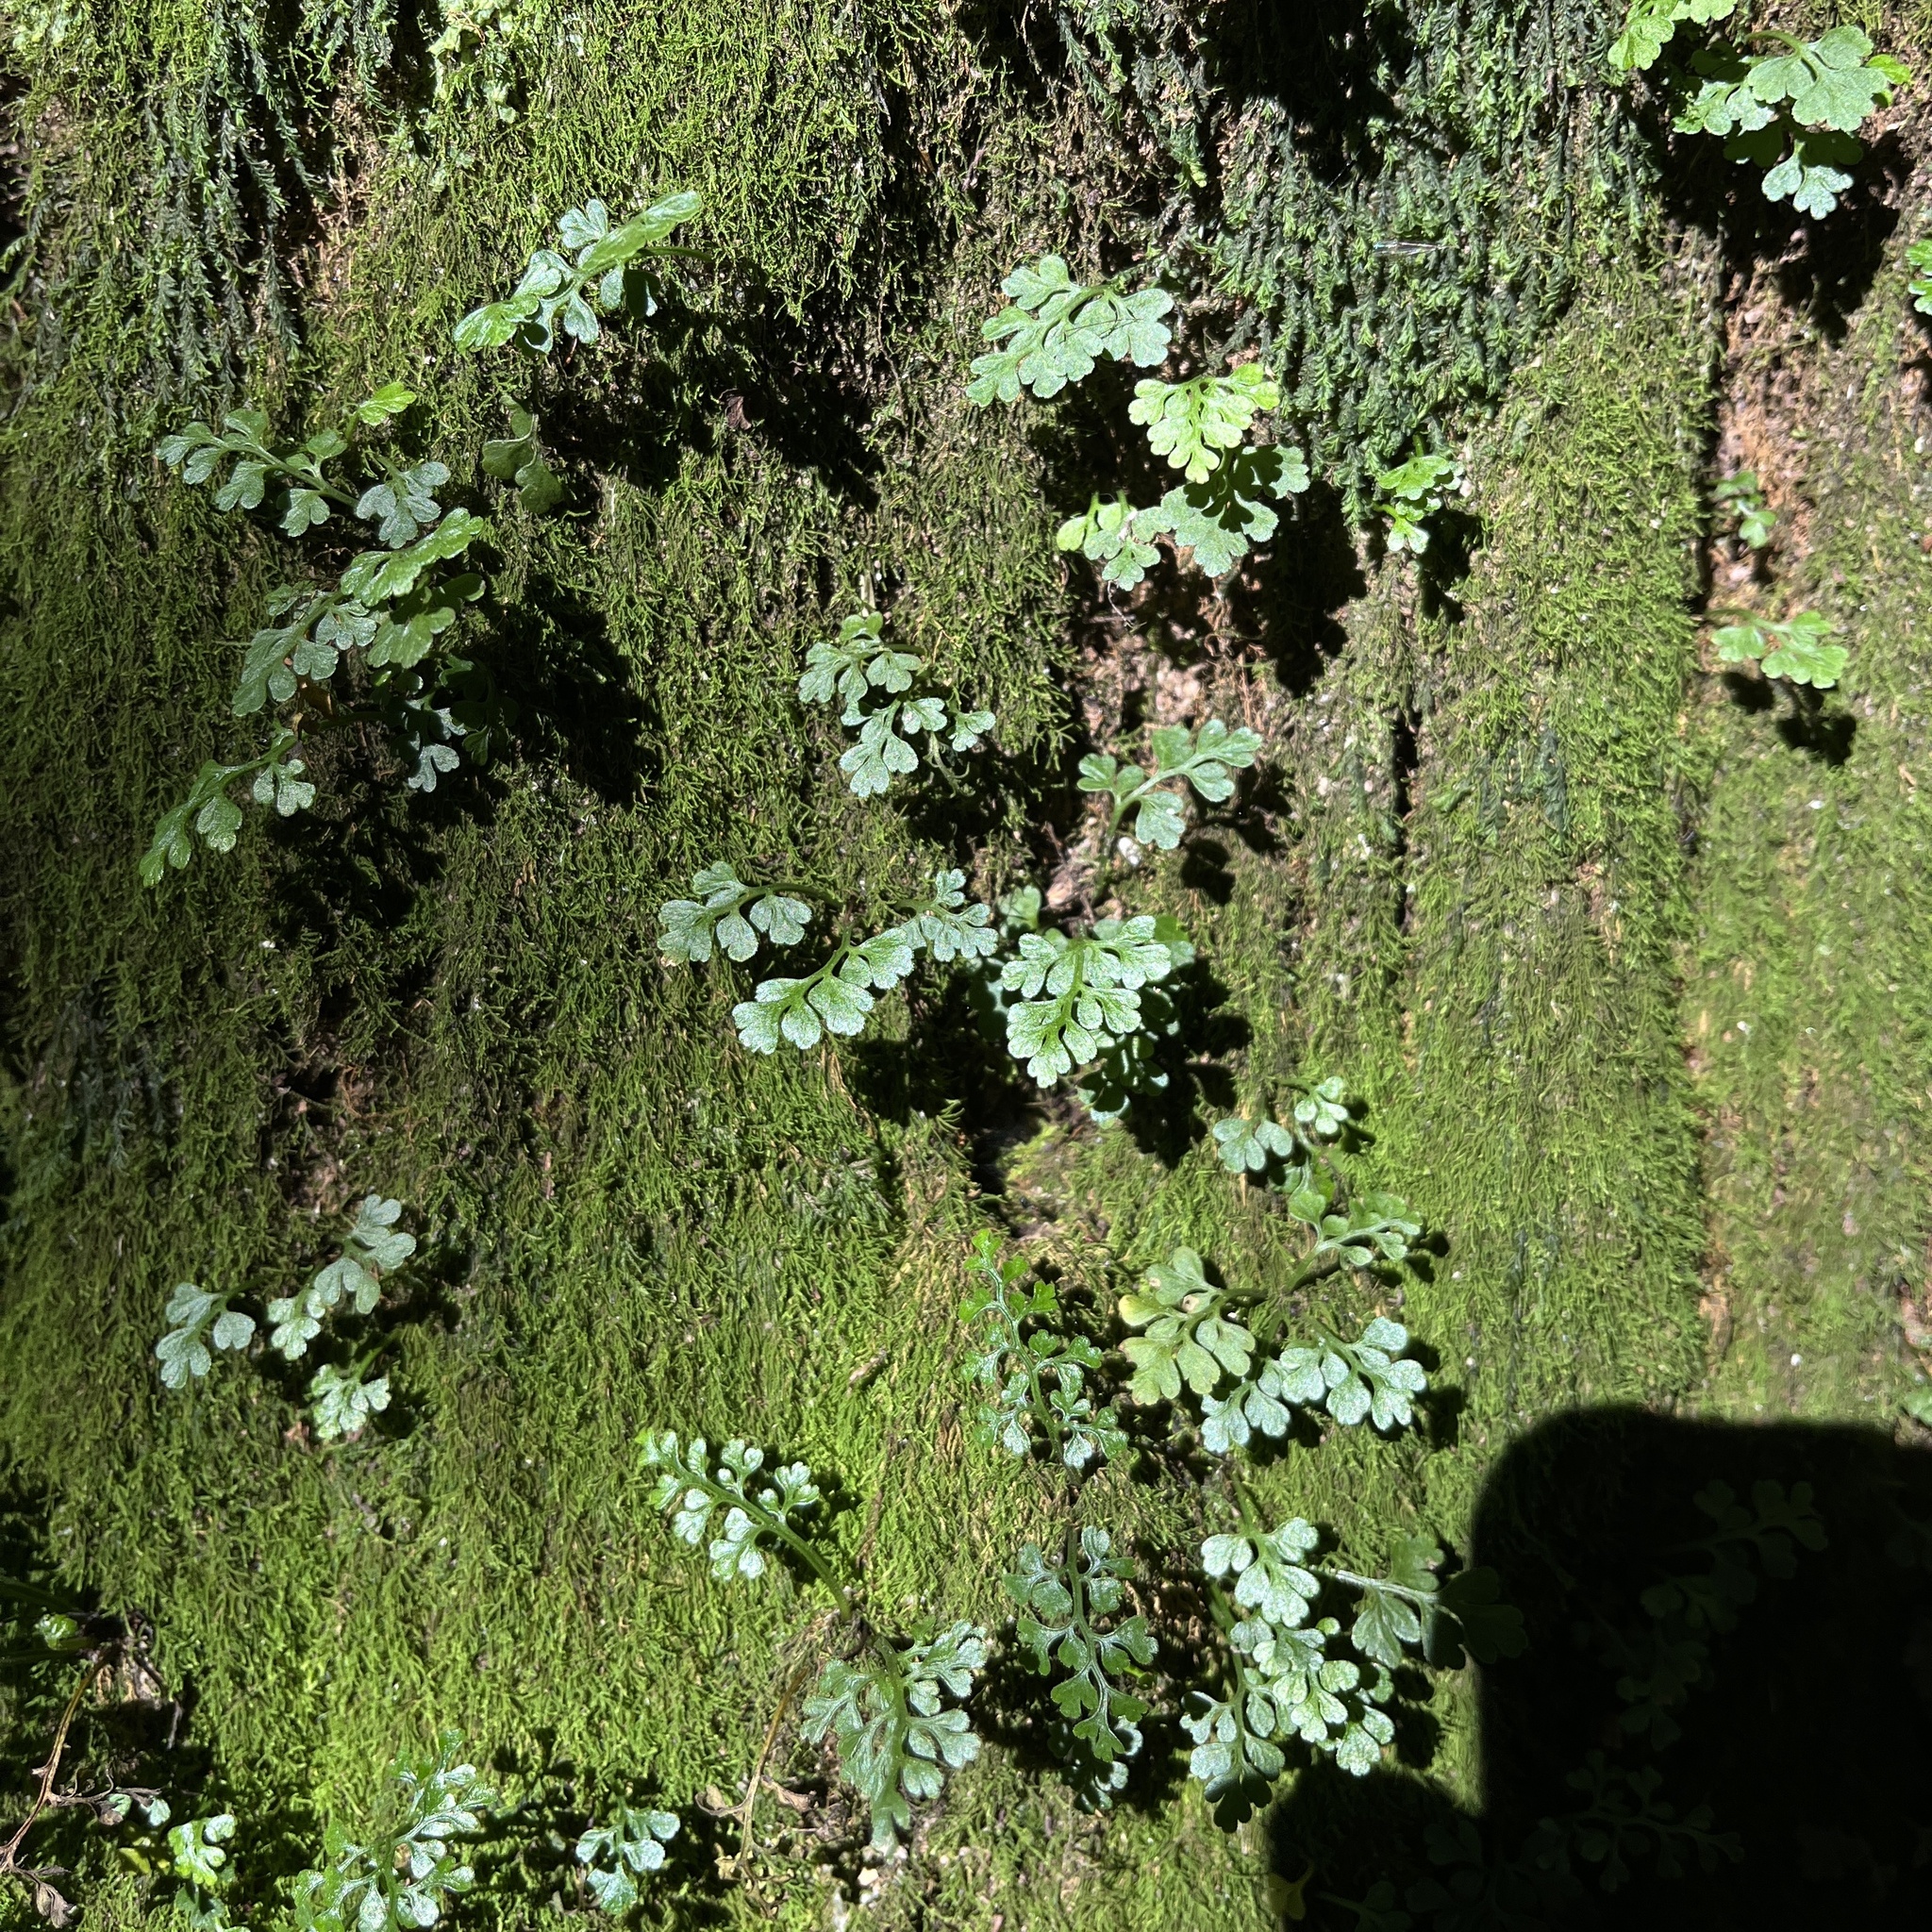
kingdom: Plantae
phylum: Tracheophyta
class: Polypodiopsida
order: Polypodiales
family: Aspleniaceae
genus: Asplenium
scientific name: Asplenium dareoides
